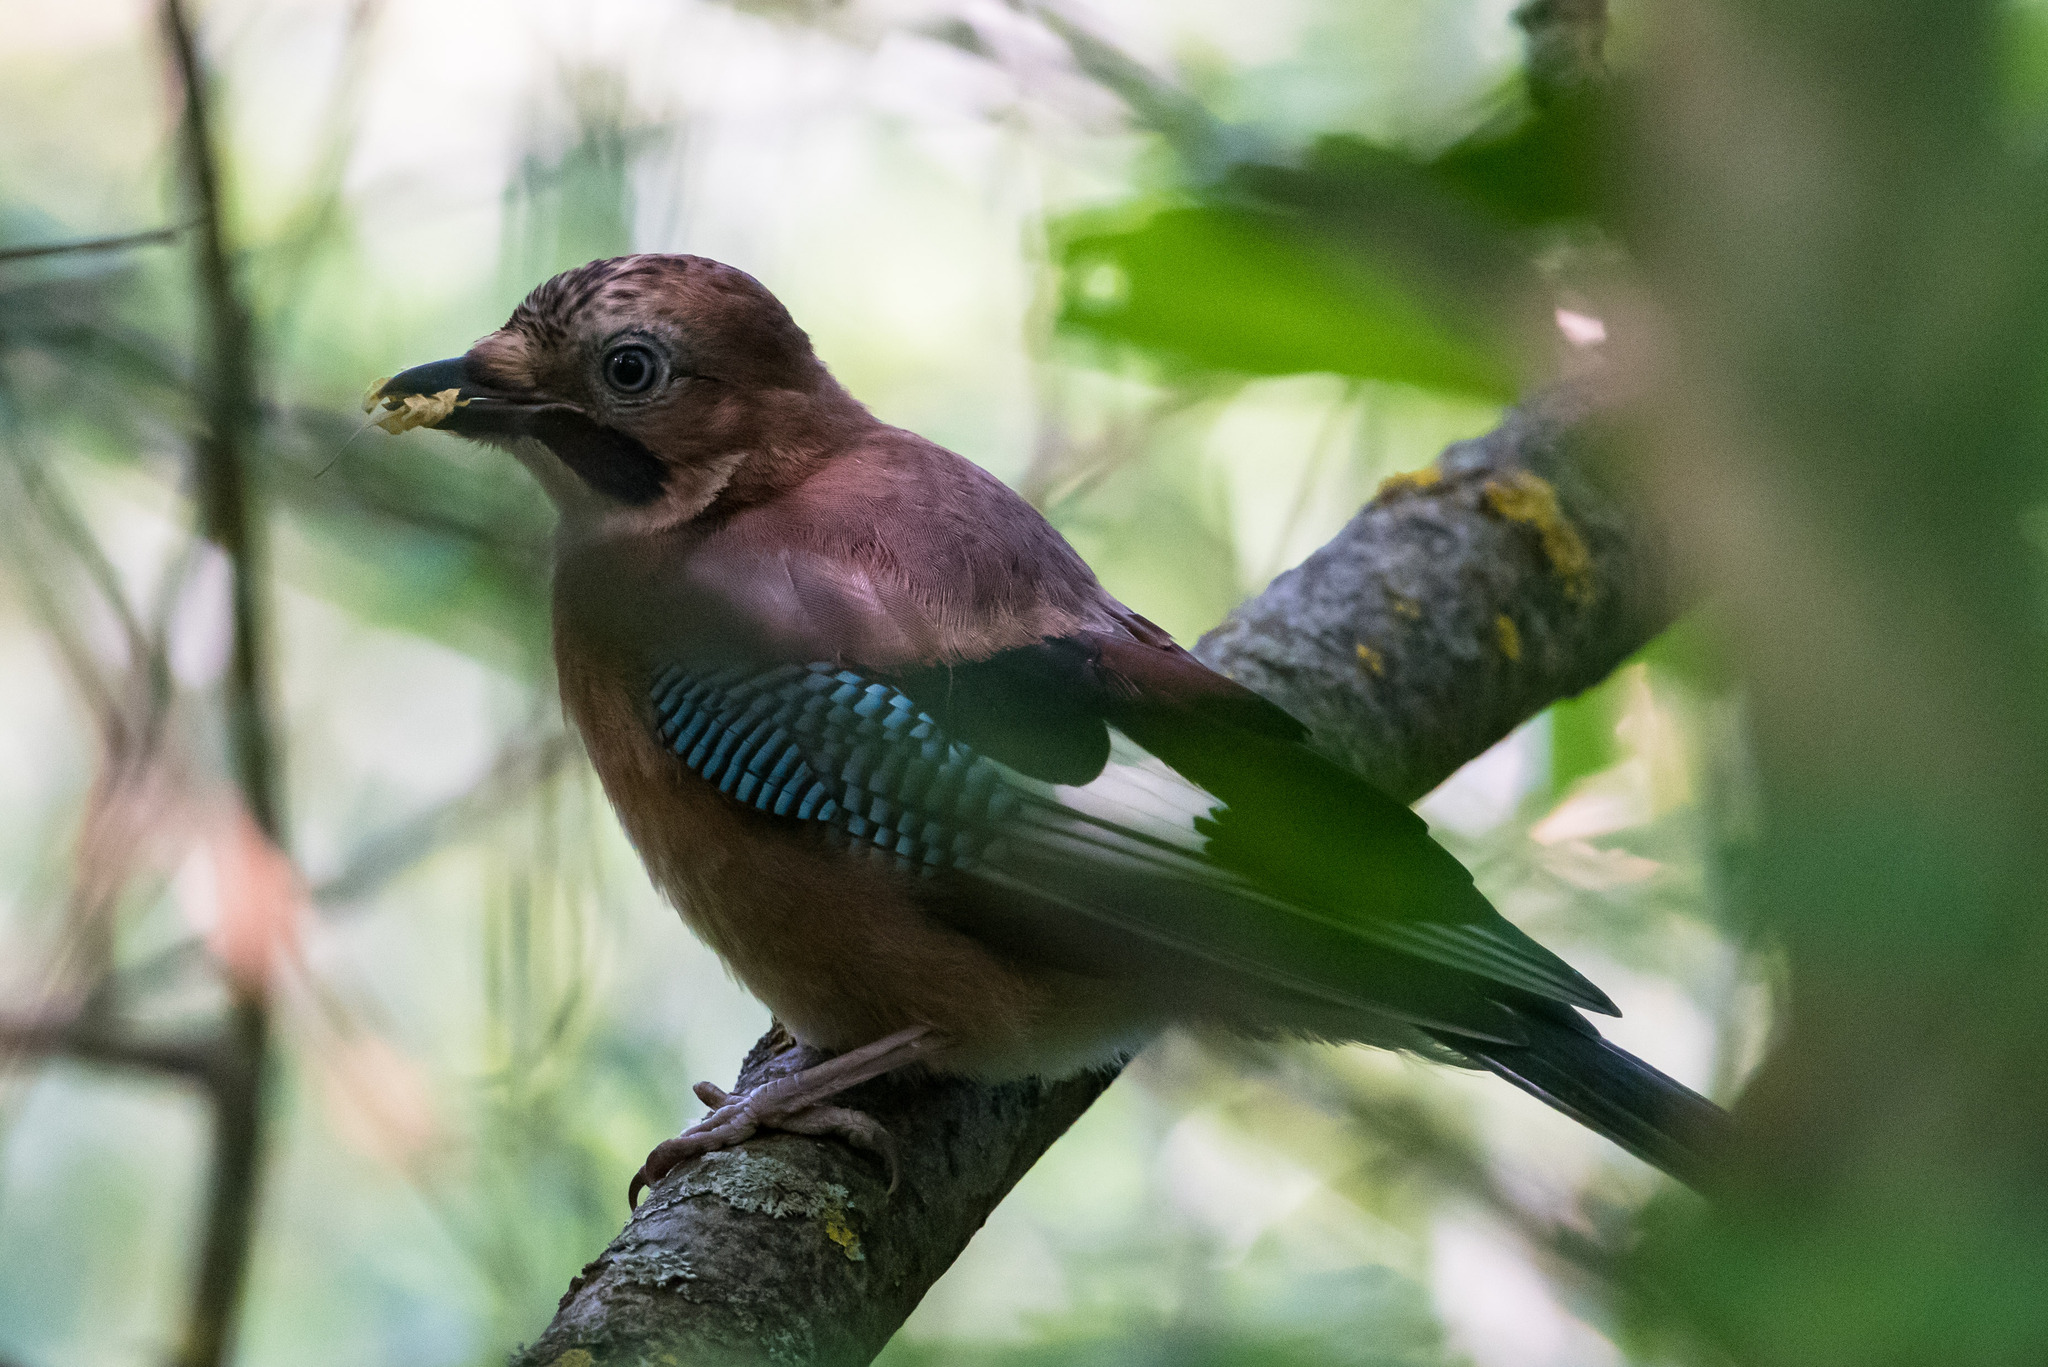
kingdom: Animalia
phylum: Chordata
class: Aves
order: Passeriformes
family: Corvidae
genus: Garrulus
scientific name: Garrulus glandarius
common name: Eurasian jay
